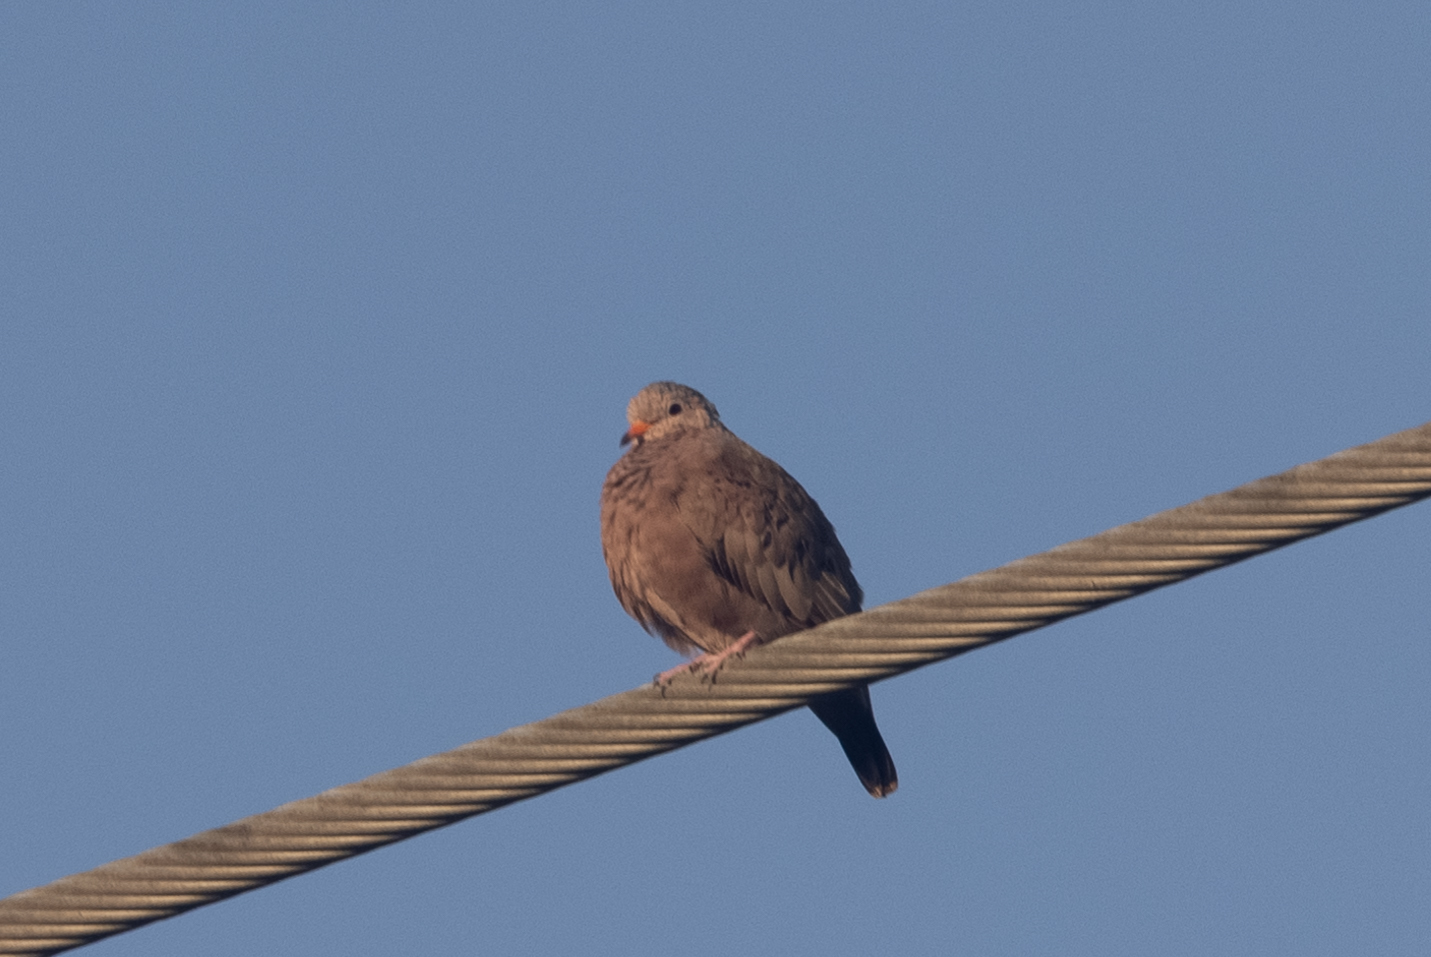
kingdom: Animalia
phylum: Chordata
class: Aves
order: Columbiformes
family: Columbidae
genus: Columbina
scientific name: Columbina passerina
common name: Common ground-dove
